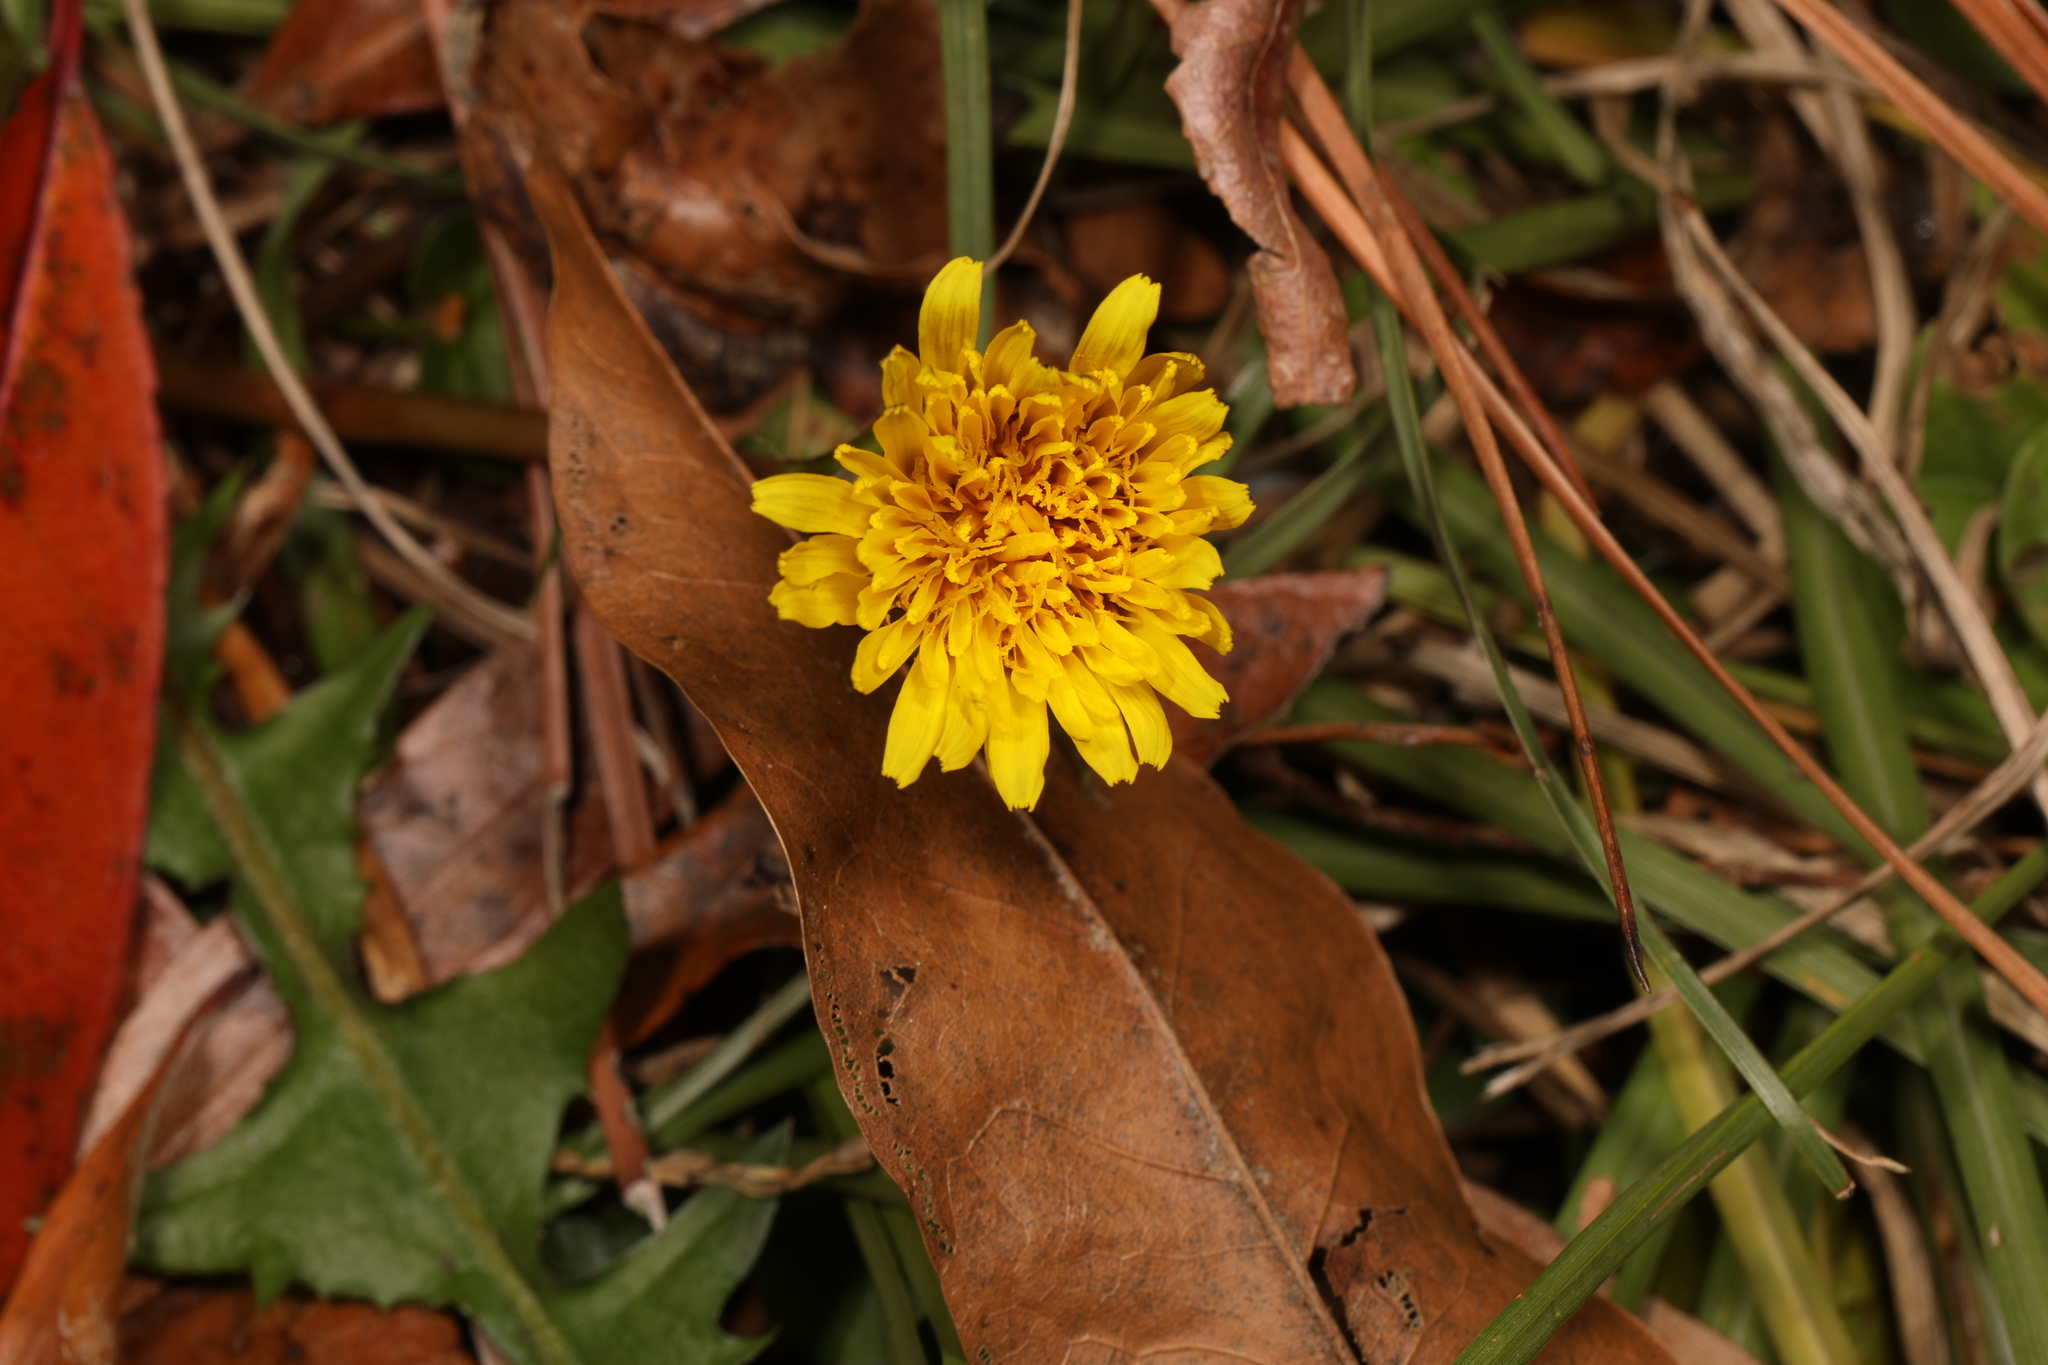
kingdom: Plantae
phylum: Tracheophyta
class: Magnoliopsida
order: Asterales
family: Asteraceae
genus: Taraxacum
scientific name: Taraxacum officinale
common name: Common dandelion
